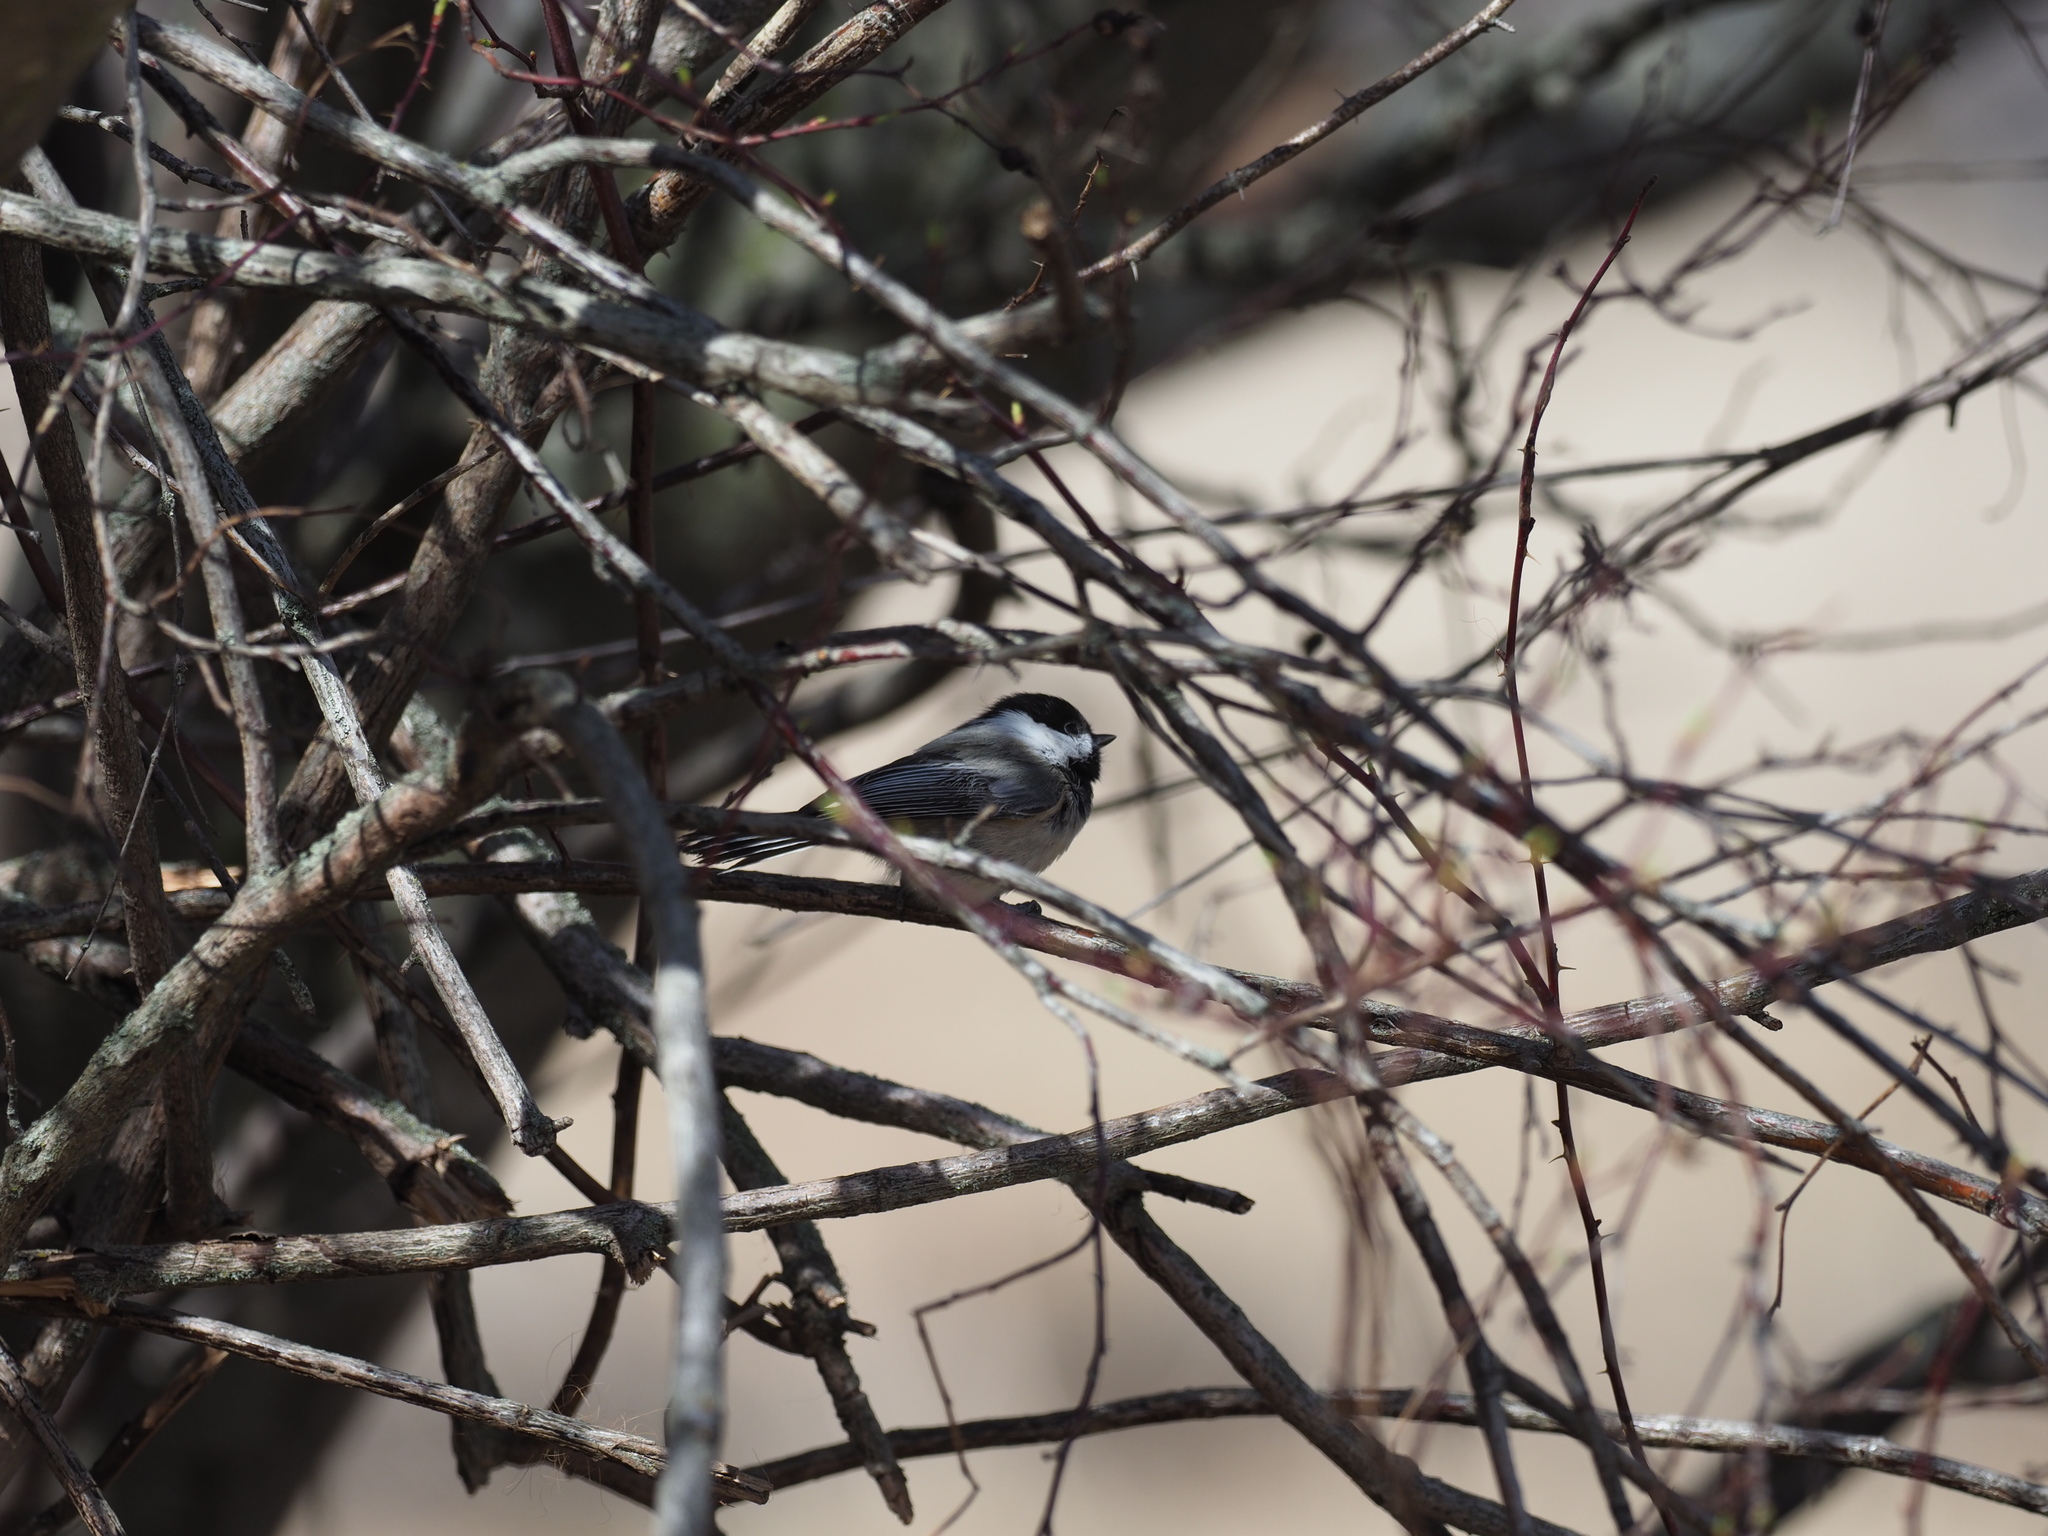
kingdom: Animalia
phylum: Chordata
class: Aves
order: Passeriformes
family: Paridae
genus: Poecile
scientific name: Poecile atricapillus
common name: Black-capped chickadee
